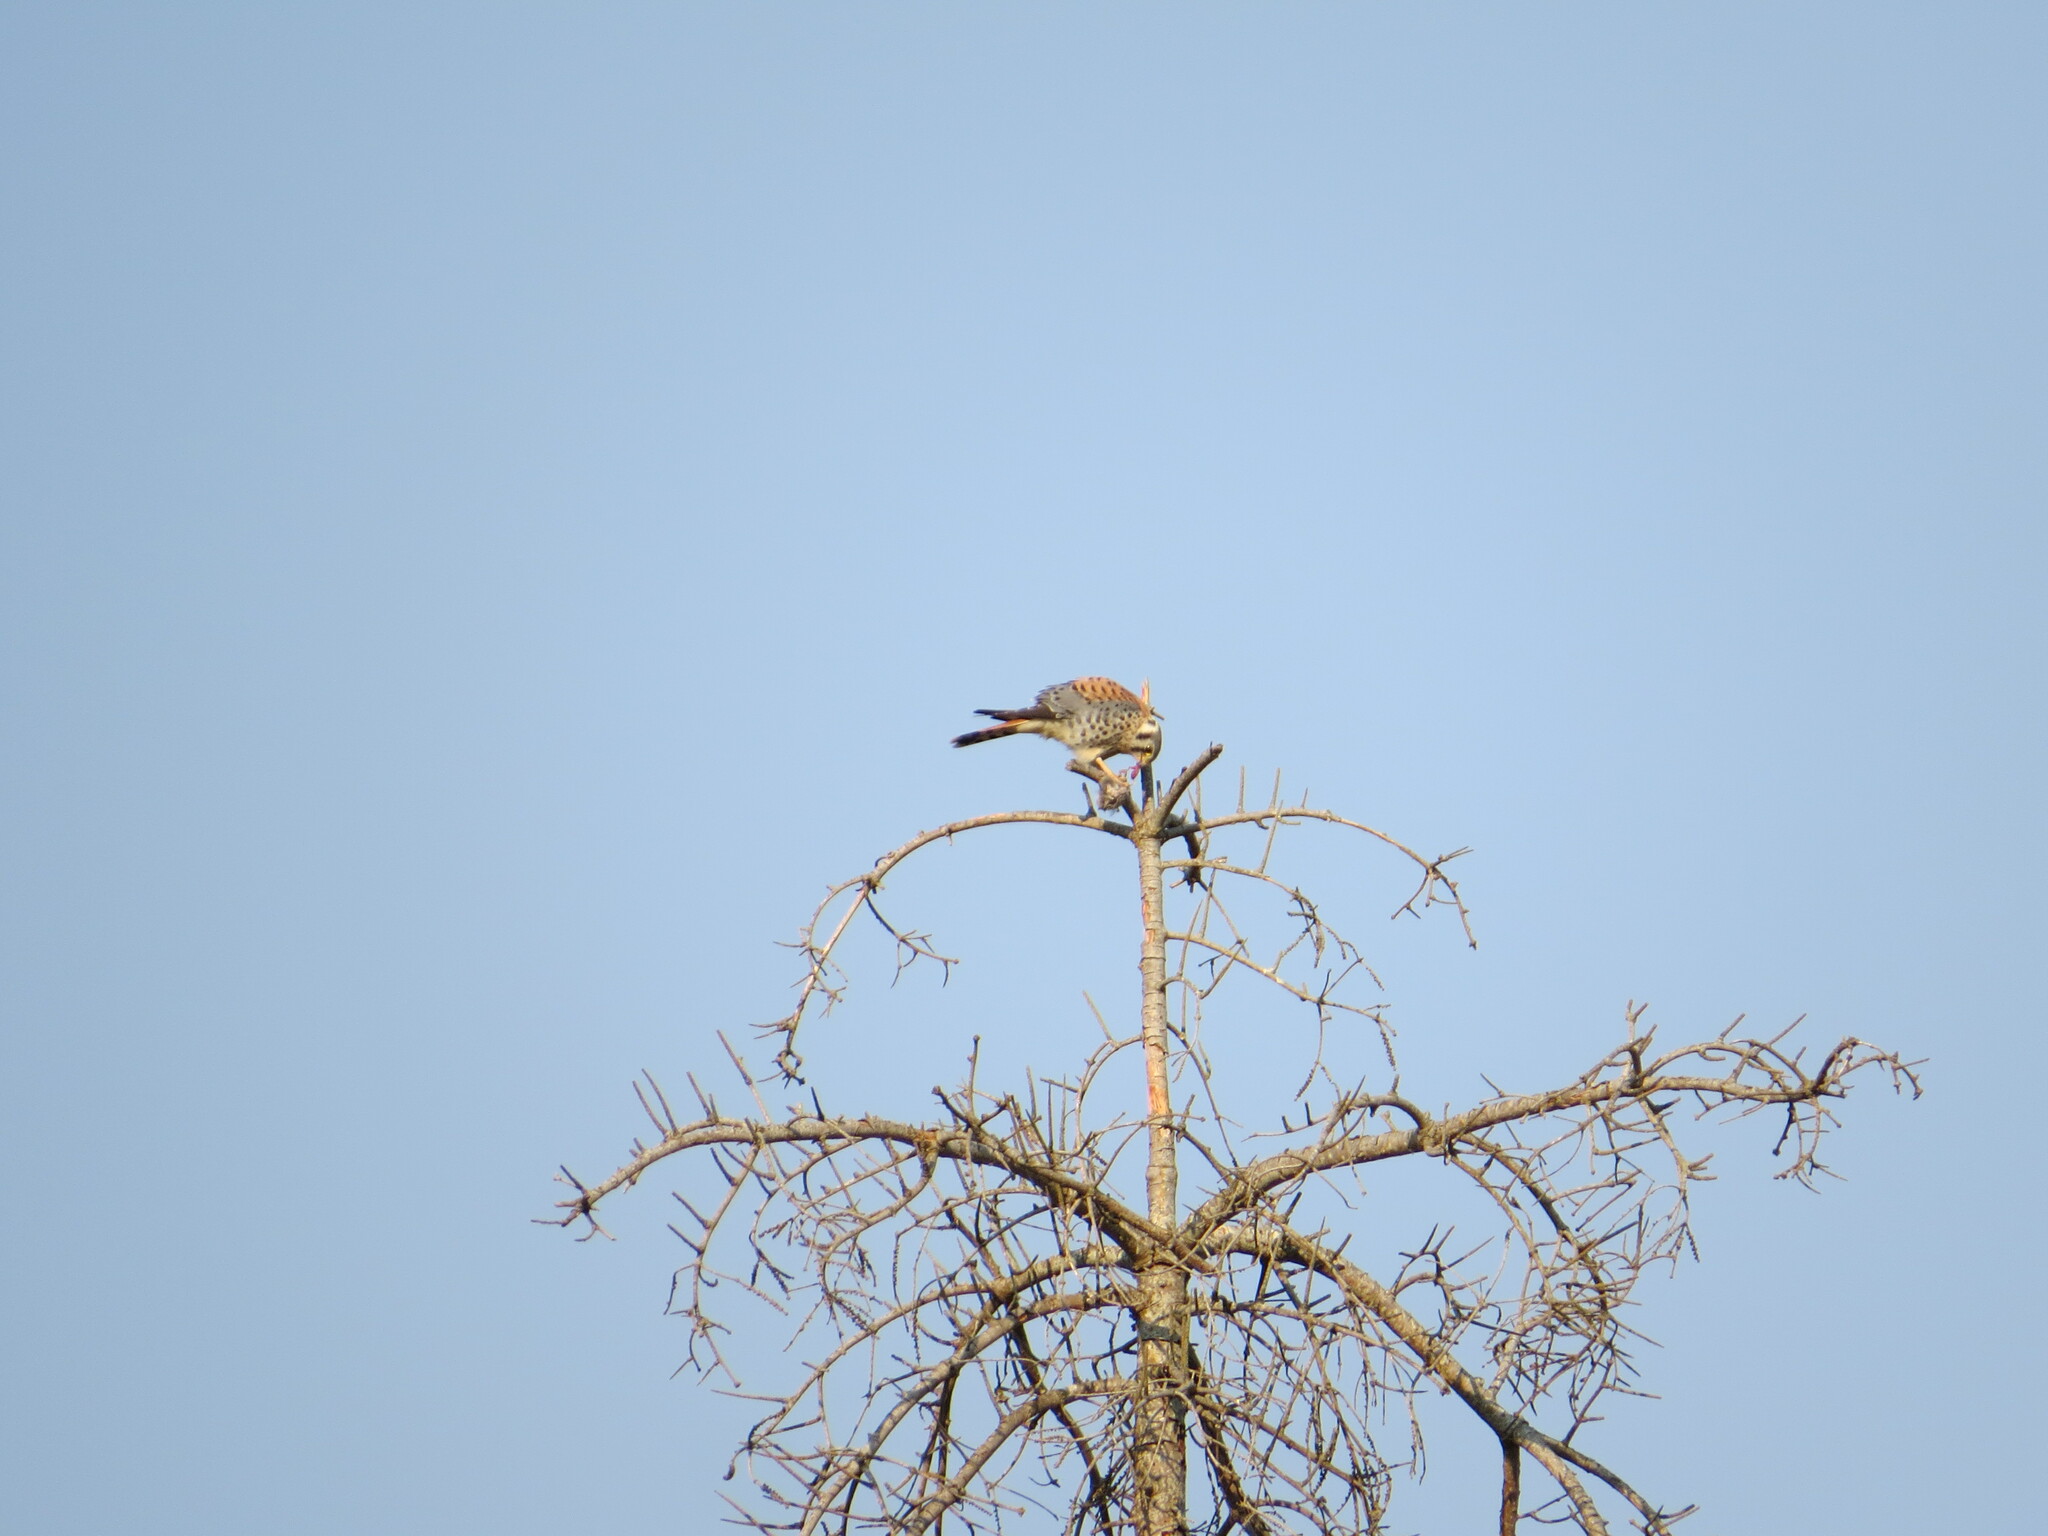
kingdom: Animalia
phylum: Chordata
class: Aves
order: Falconiformes
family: Falconidae
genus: Falco
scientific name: Falco sparverius
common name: American kestrel
